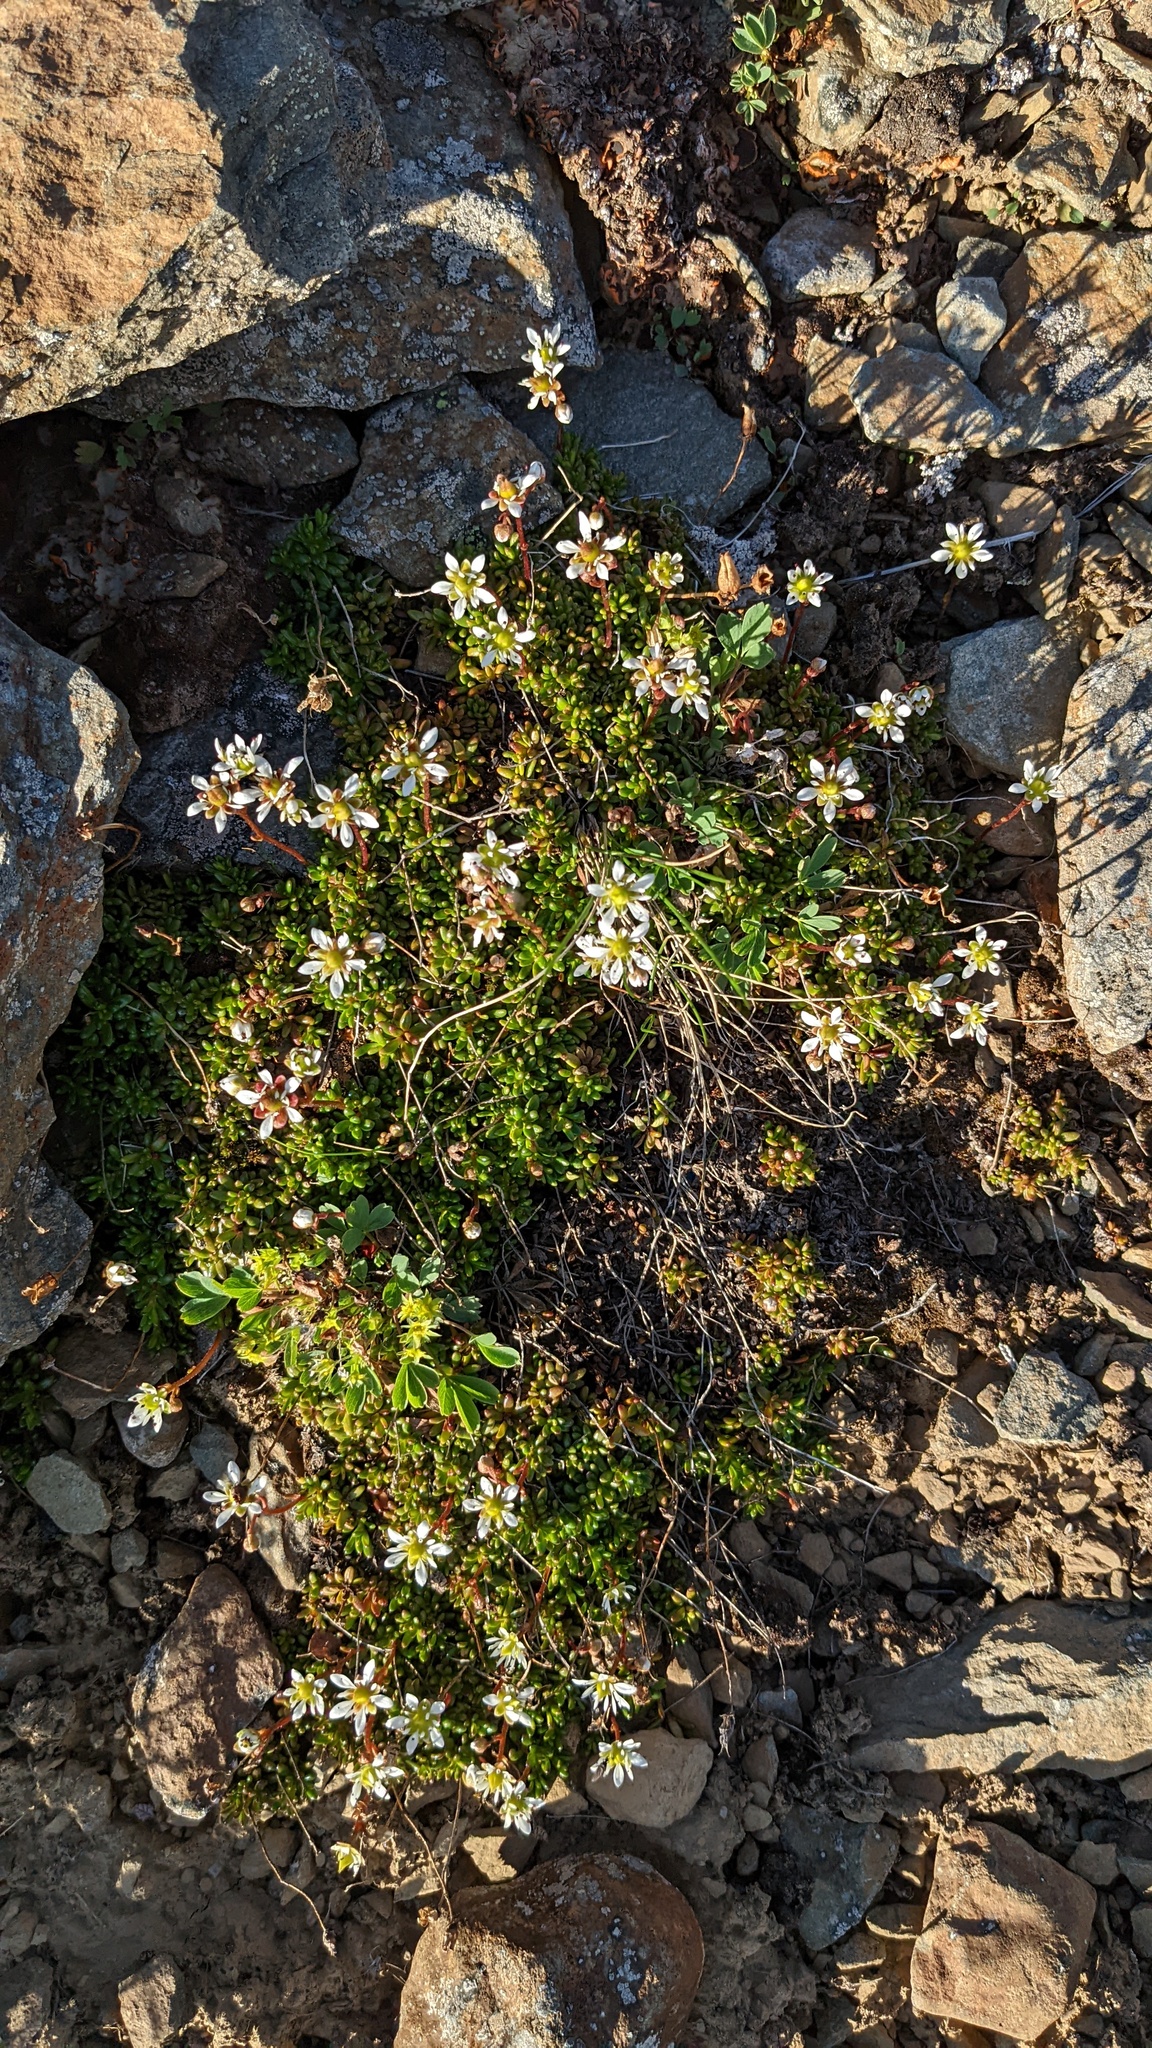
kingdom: Plantae
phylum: Tracheophyta
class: Magnoliopsida
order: Saxifragales
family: Saxifragaceae
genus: Micranthes
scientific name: Micranthes tolmiei
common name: Tolmie's saxifrage
